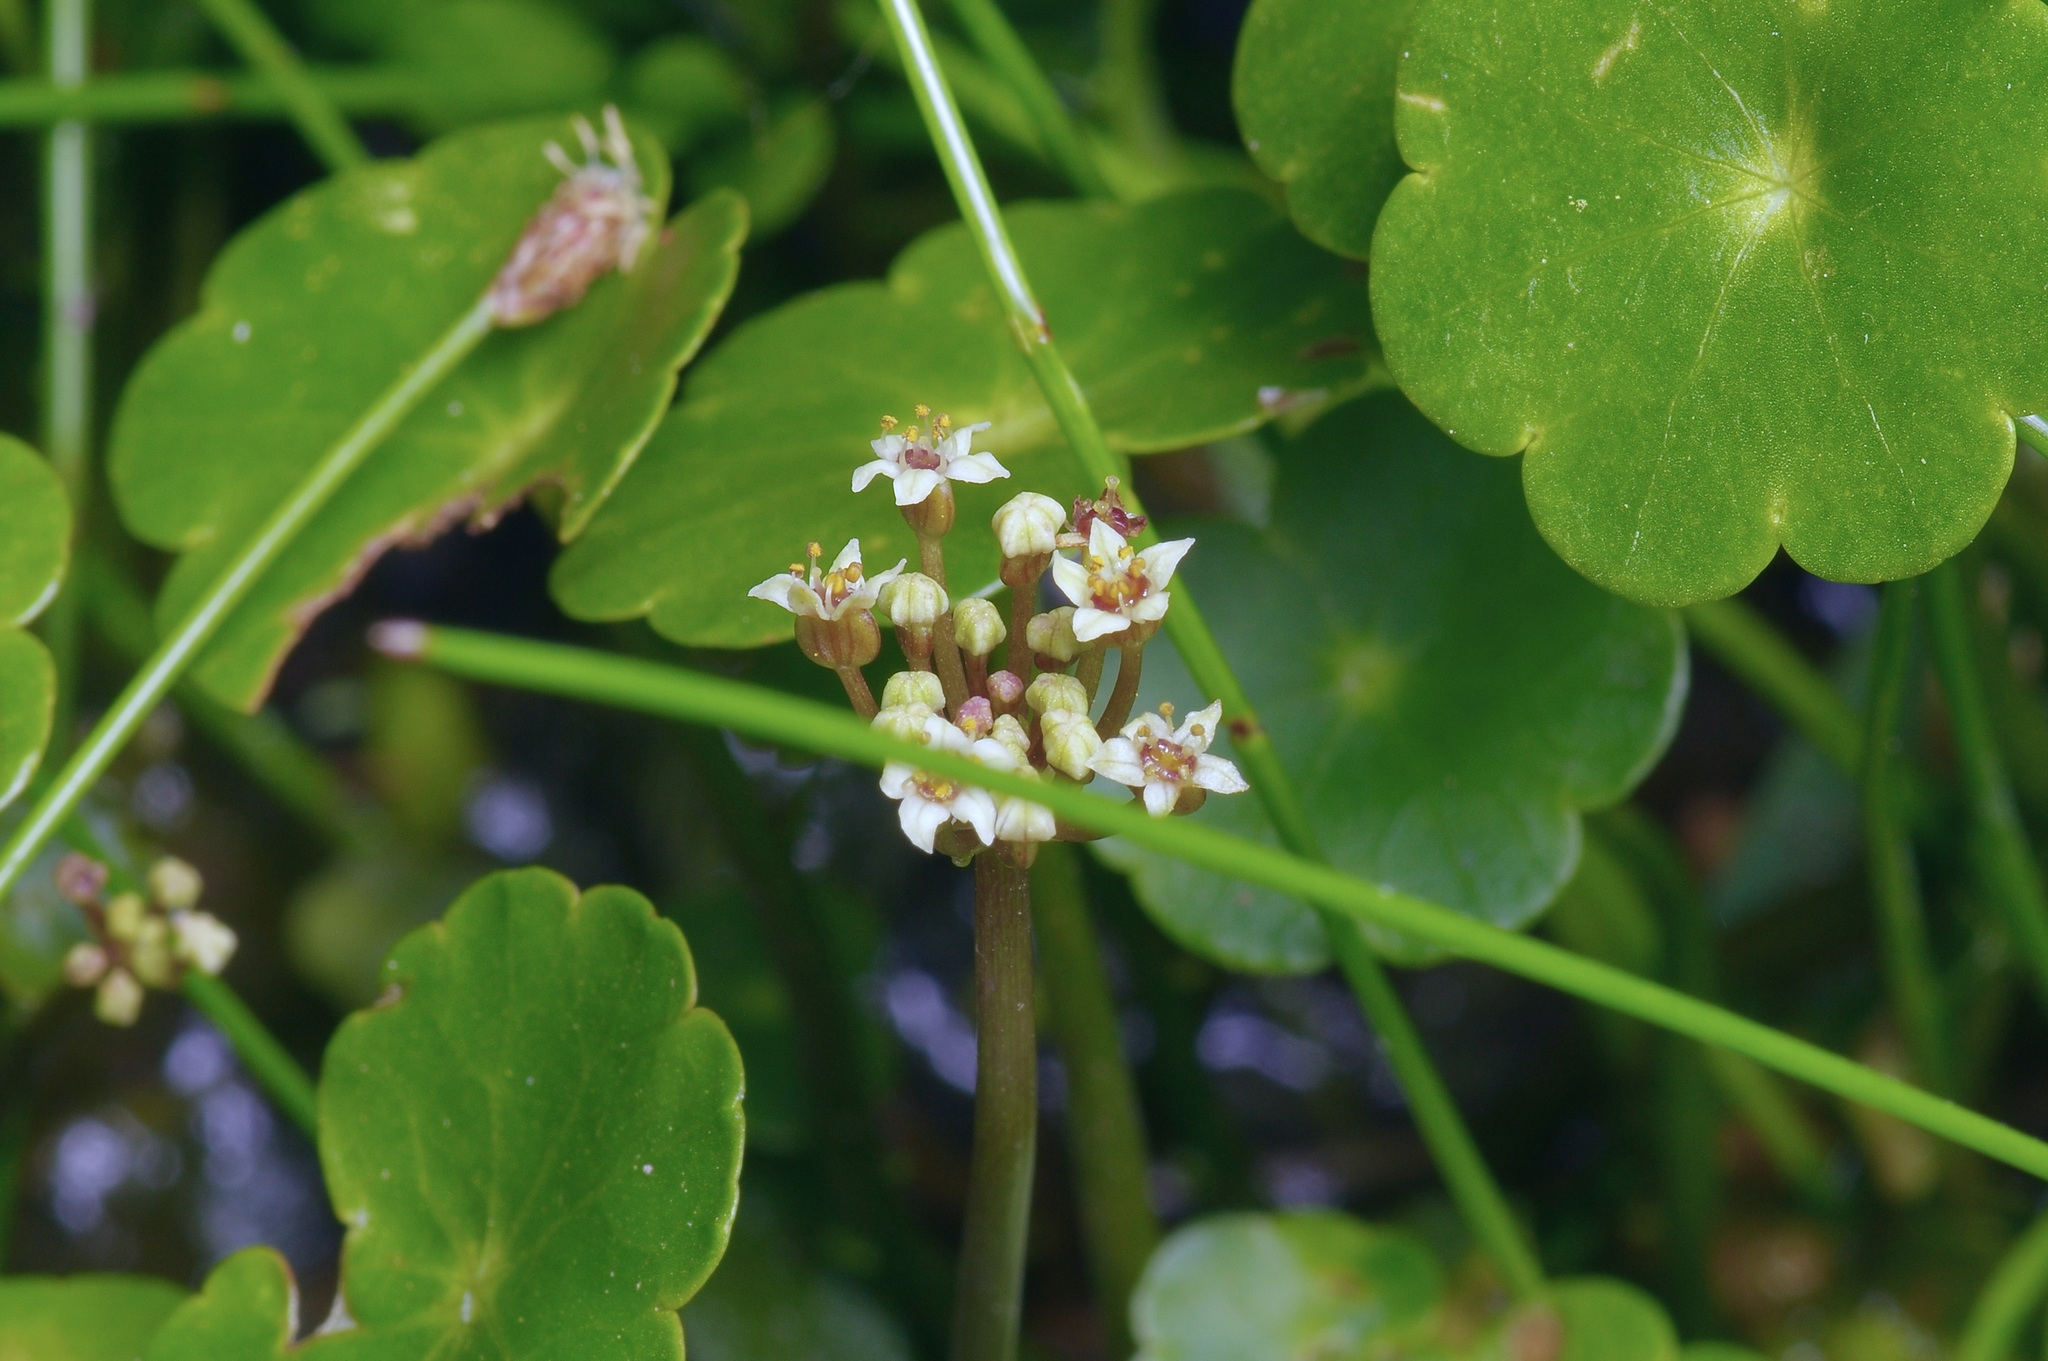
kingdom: Plantae
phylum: Tracheophyta
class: Magnoliopsida
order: Apiales
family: Araliaceae
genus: Hydrocotyle
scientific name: Hydrocotyle umbellata
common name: Water pennywort
